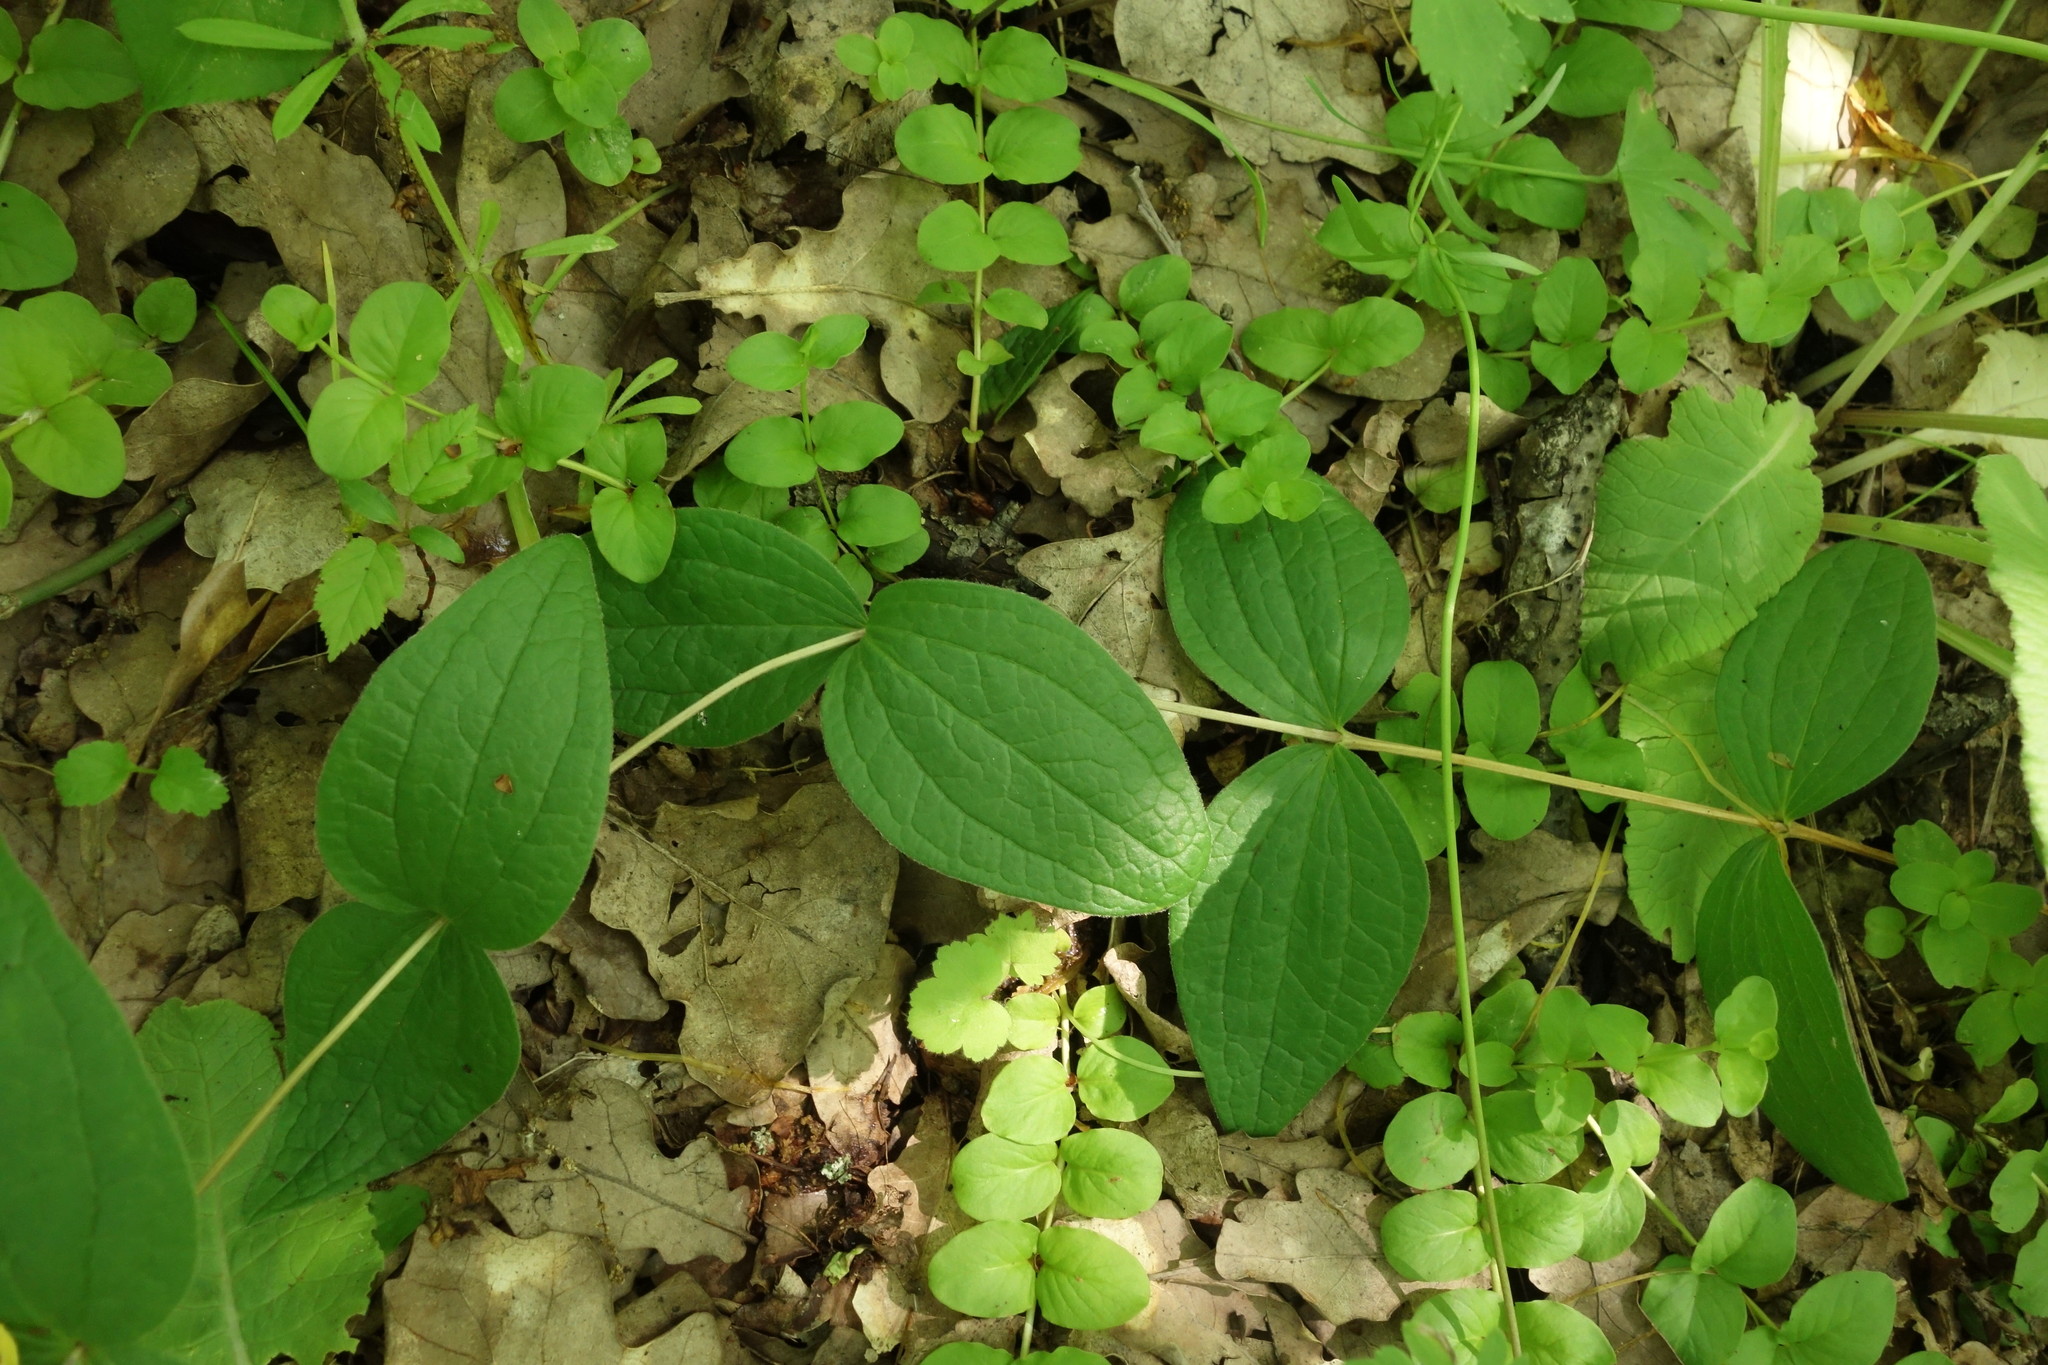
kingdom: Plantae
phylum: Tracheophyta
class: Magnoliopsida
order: Ranunculales
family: Ranunculaceae
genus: Clematis
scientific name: Clematis integrifolia
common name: Solitary clematis
